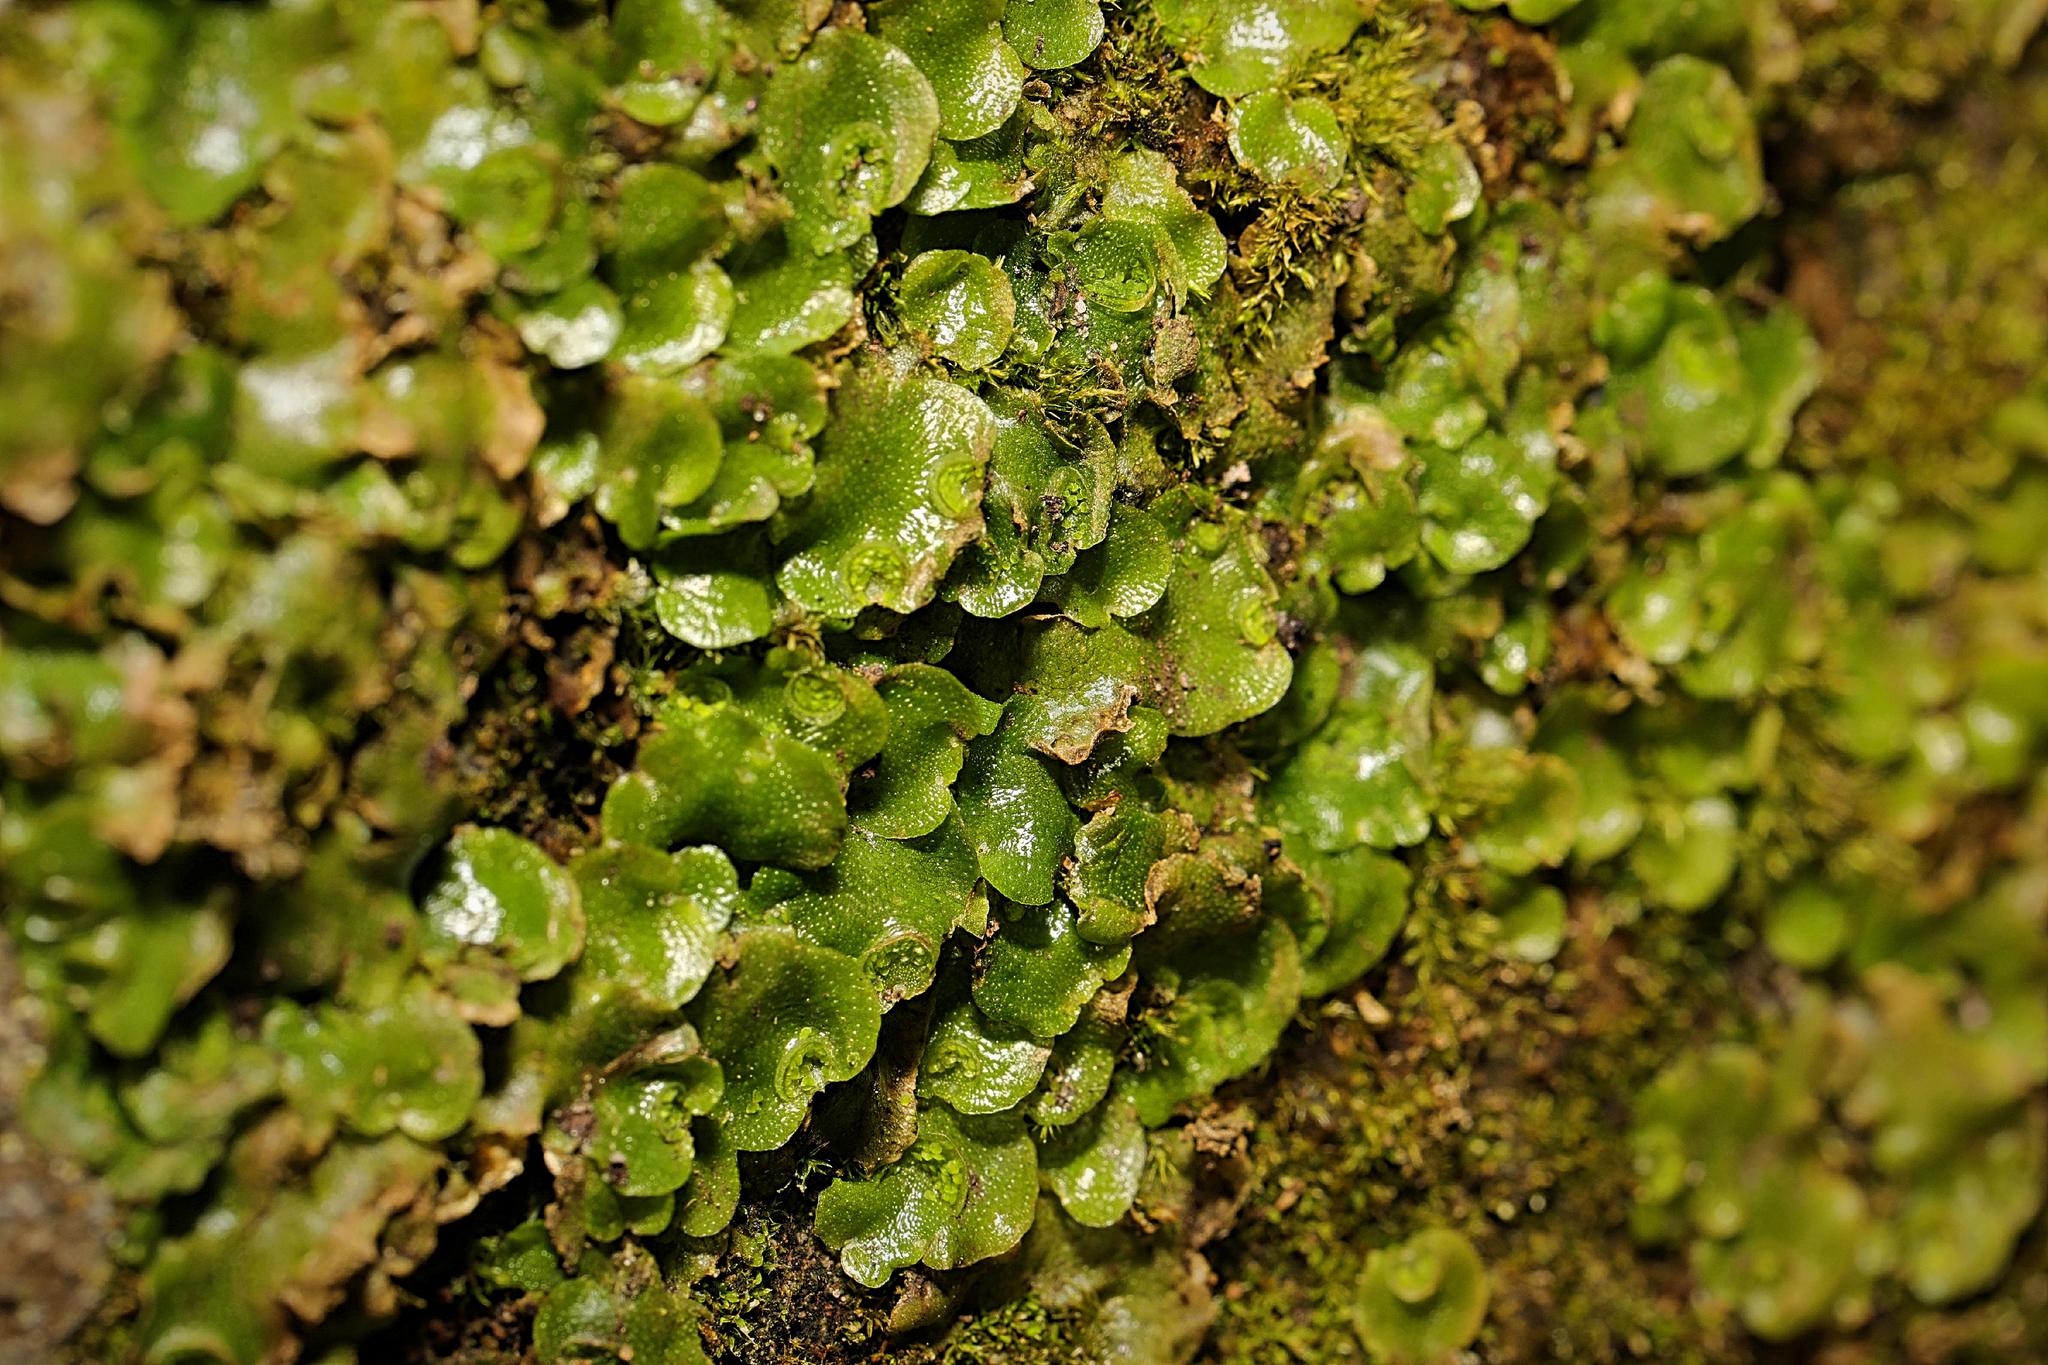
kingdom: Plantae
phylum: Marchantiophyta
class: Marchantiopsida
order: Lunulariales
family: Lunulariaceae
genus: Lunularia
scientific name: Lunularia cruciata
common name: Crescent-cup liverwort
